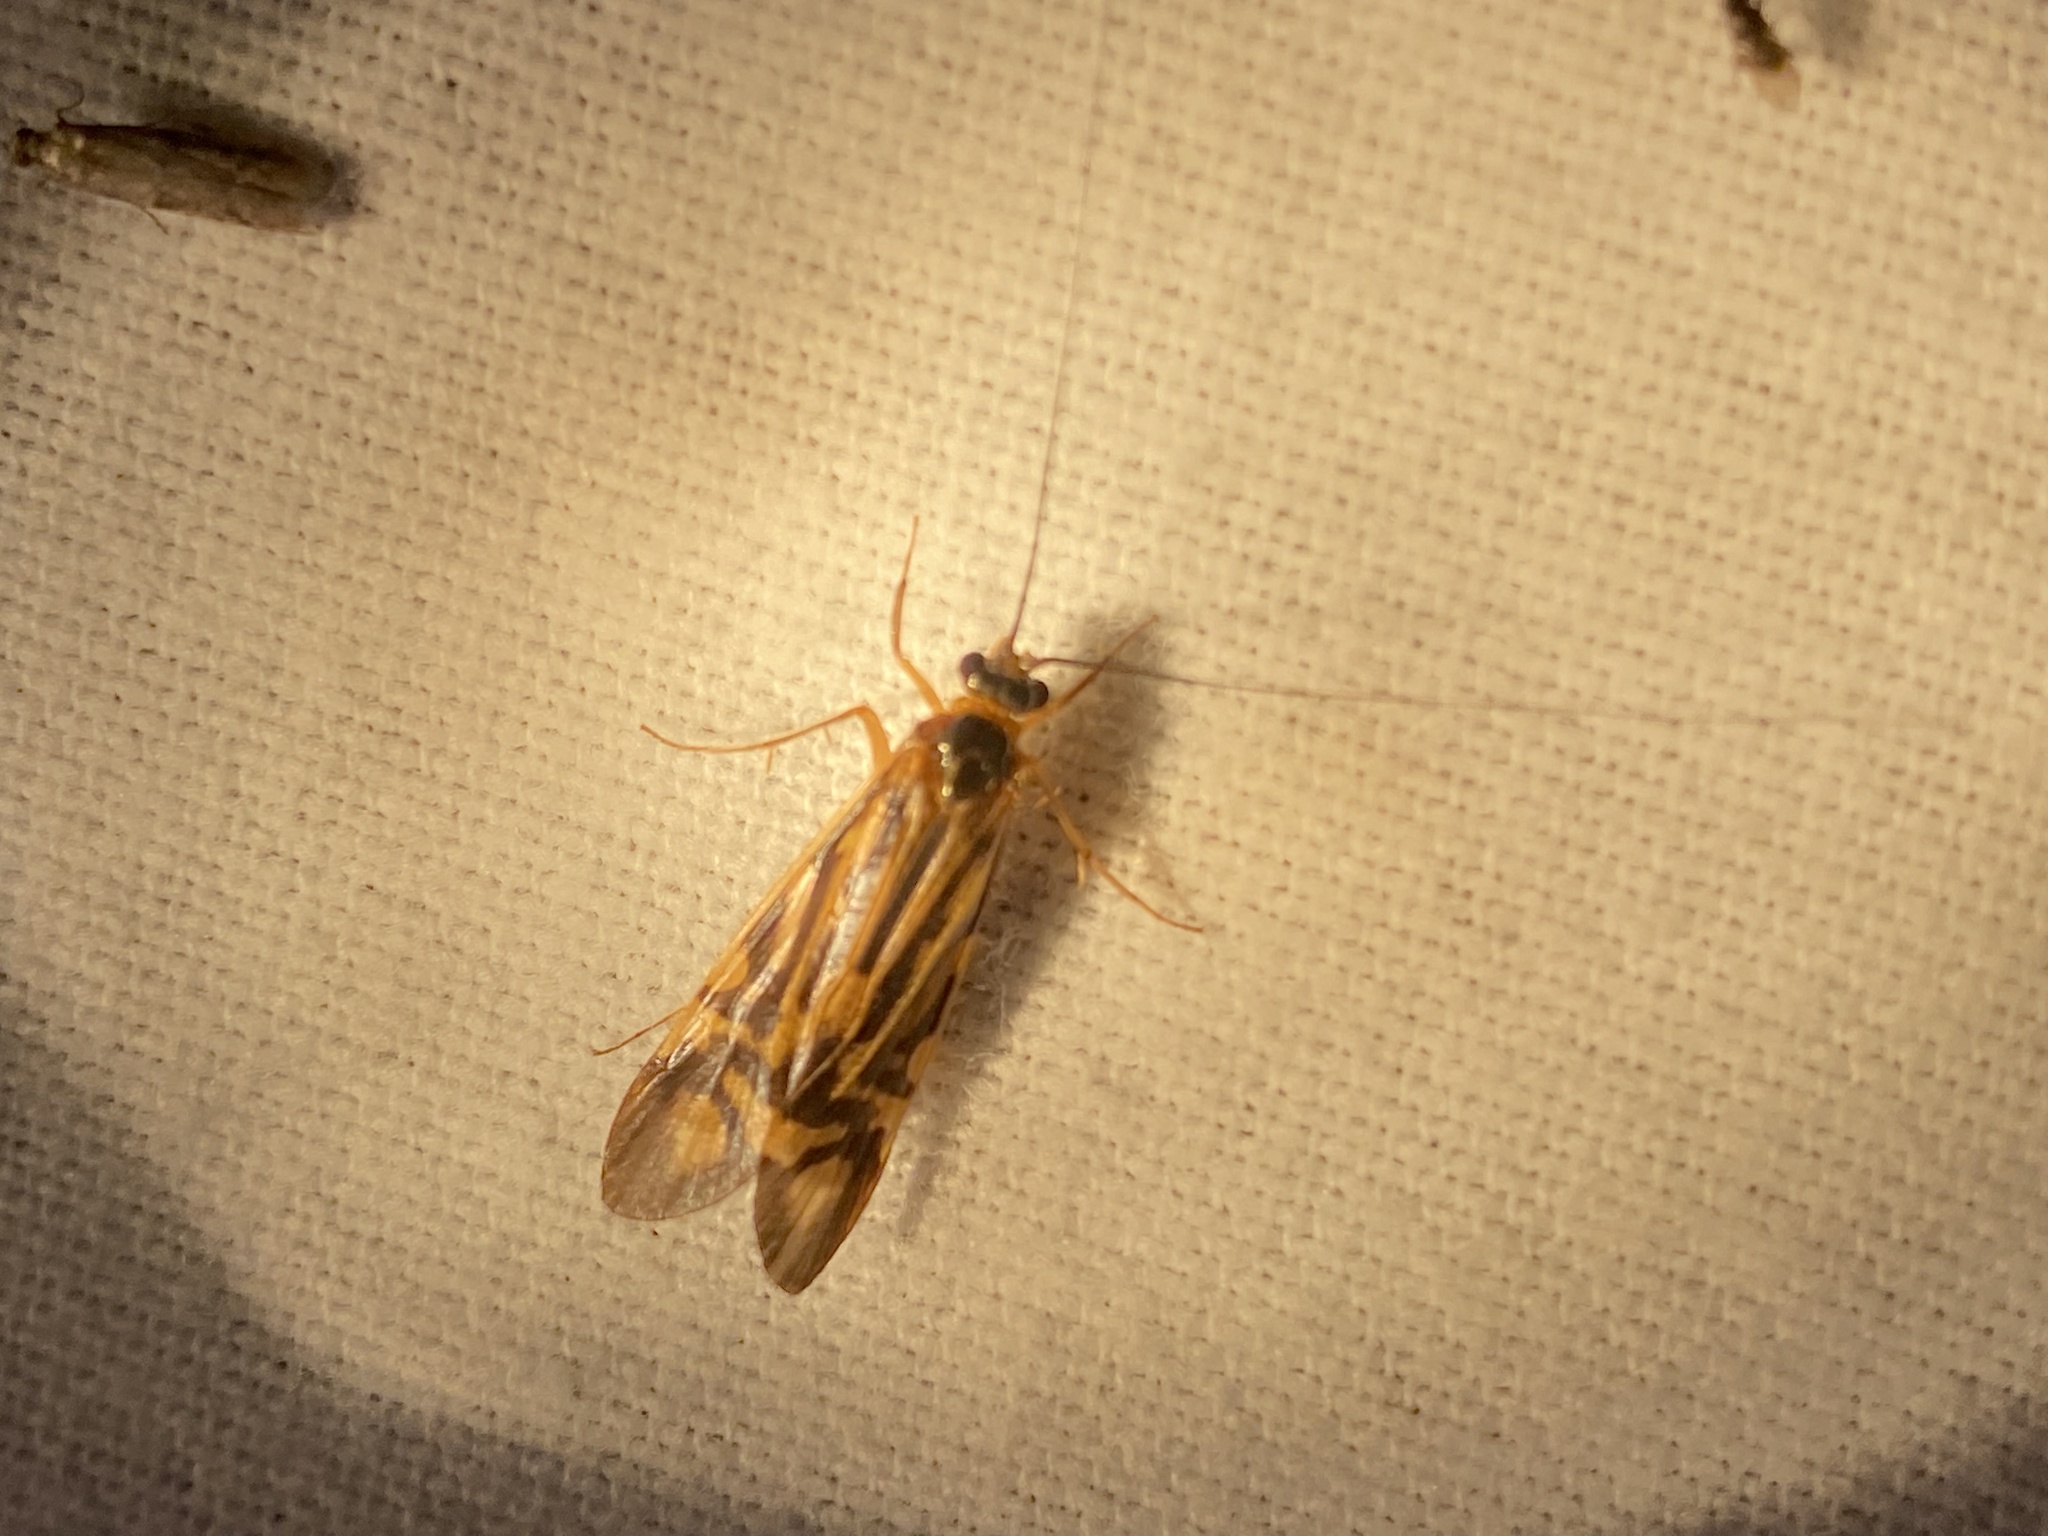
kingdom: Animalia
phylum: Arthropoda
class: Insecta
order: Trichoptera
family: Hydropsychidae
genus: Macrostemum
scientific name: Macrostemum zebratum
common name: Zebra caddisfly
